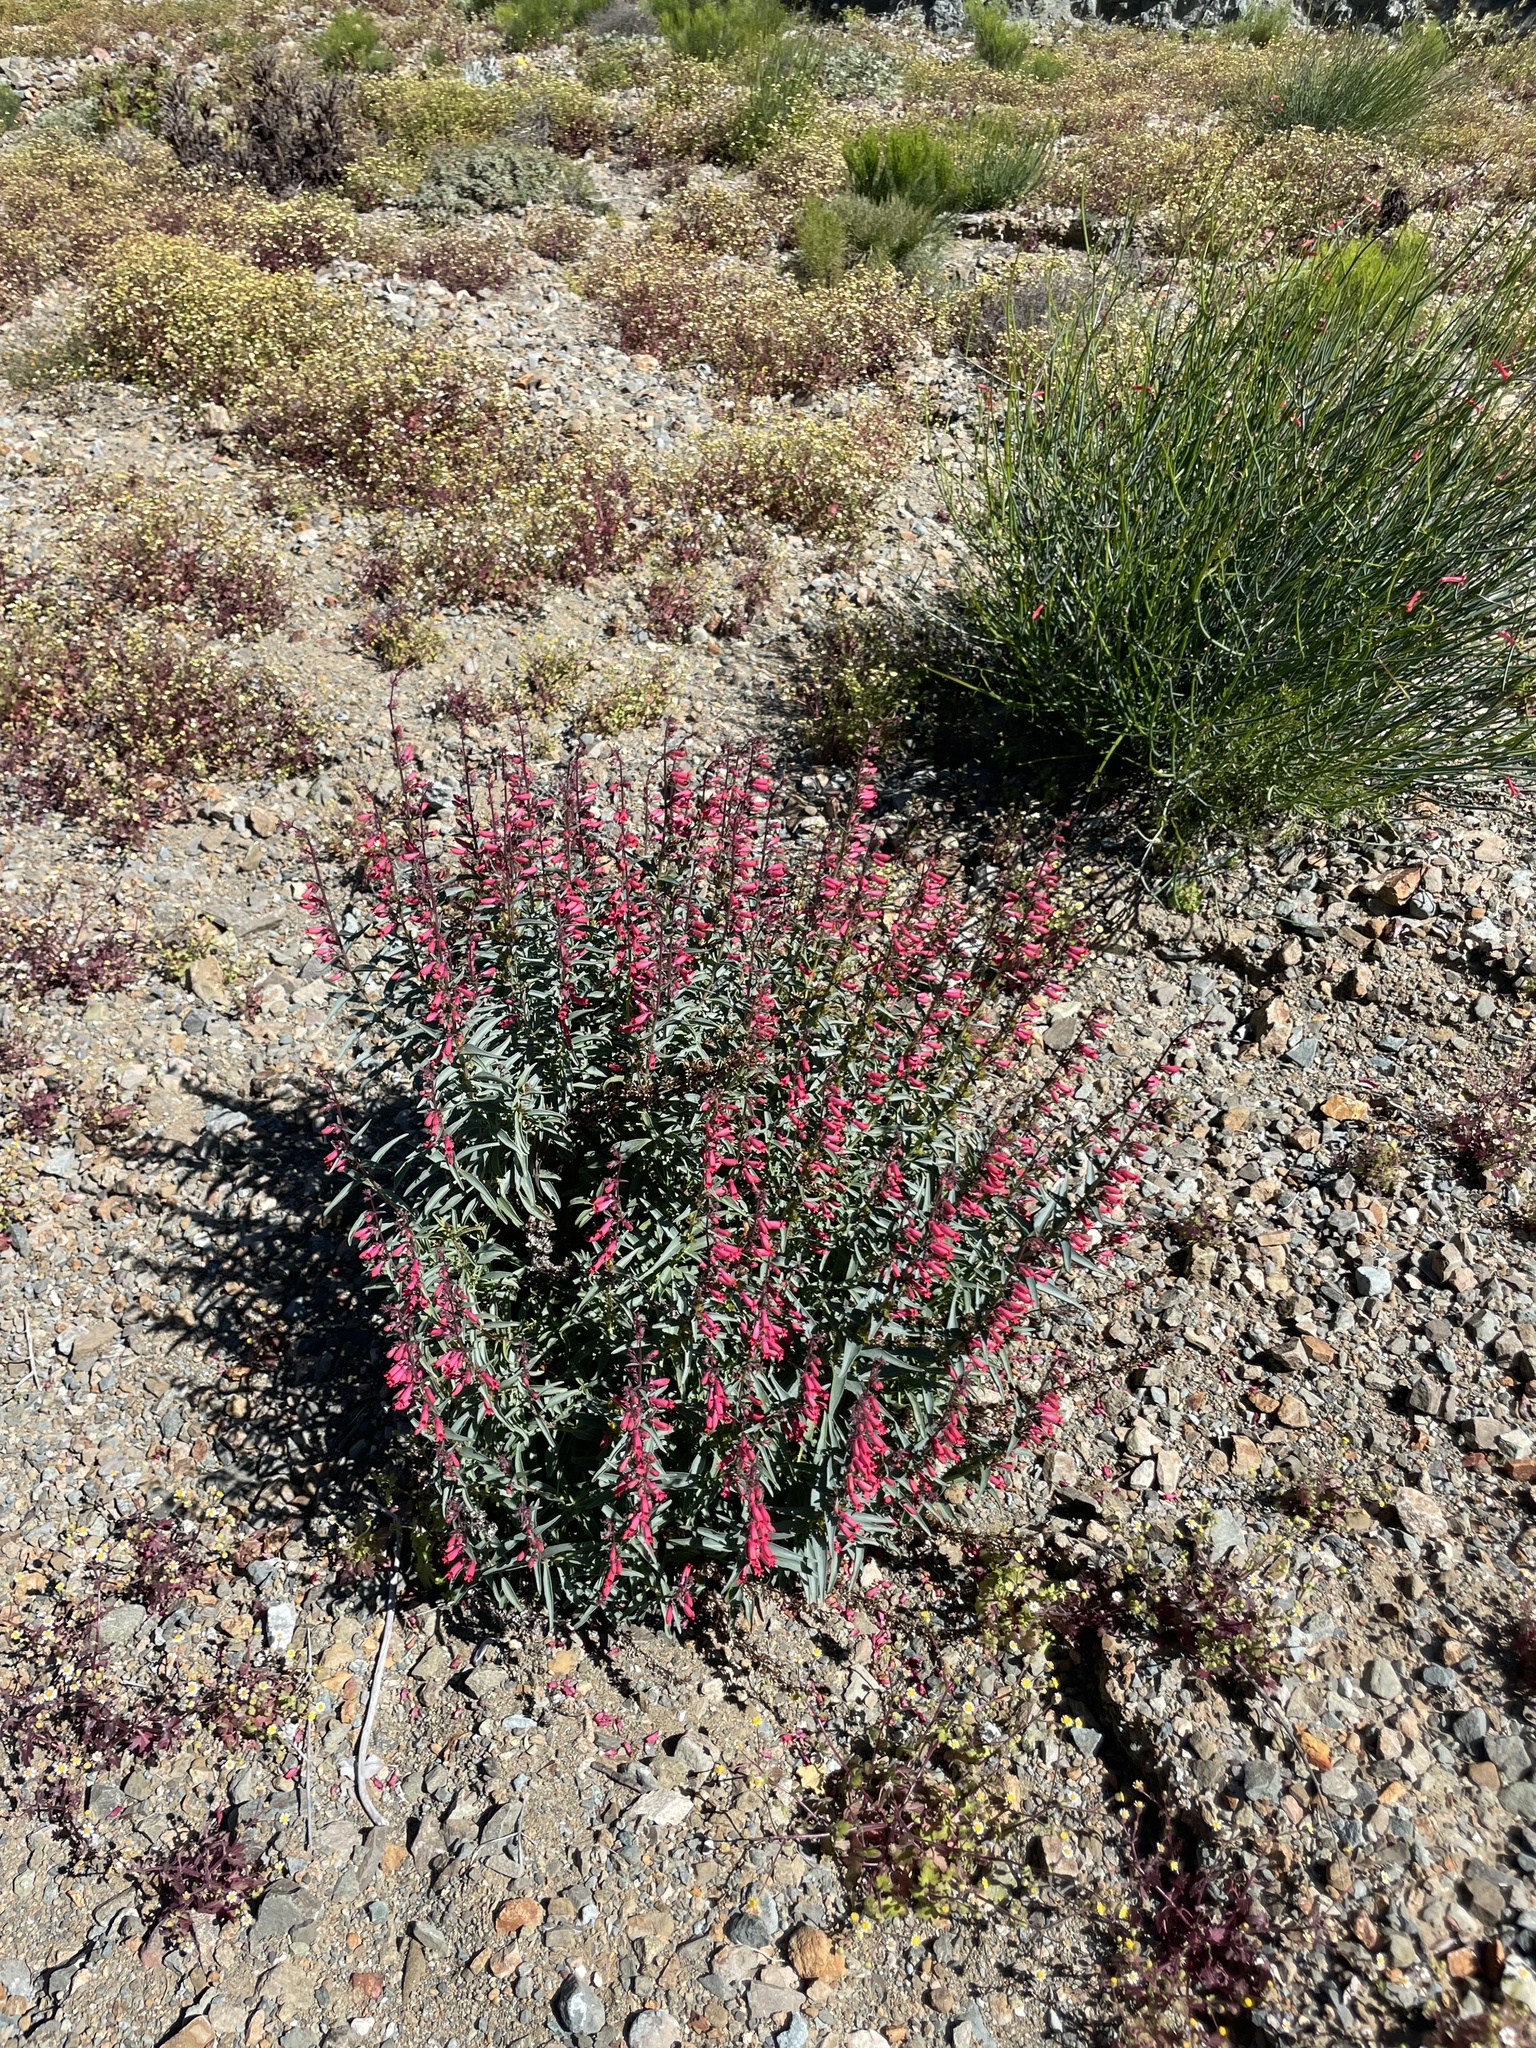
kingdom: Plantae
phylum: Tracheophyta
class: Magnoliopsida
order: Lamiales
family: Plantaginaceae
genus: Penstemon
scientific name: Penstemon cedrosensis
